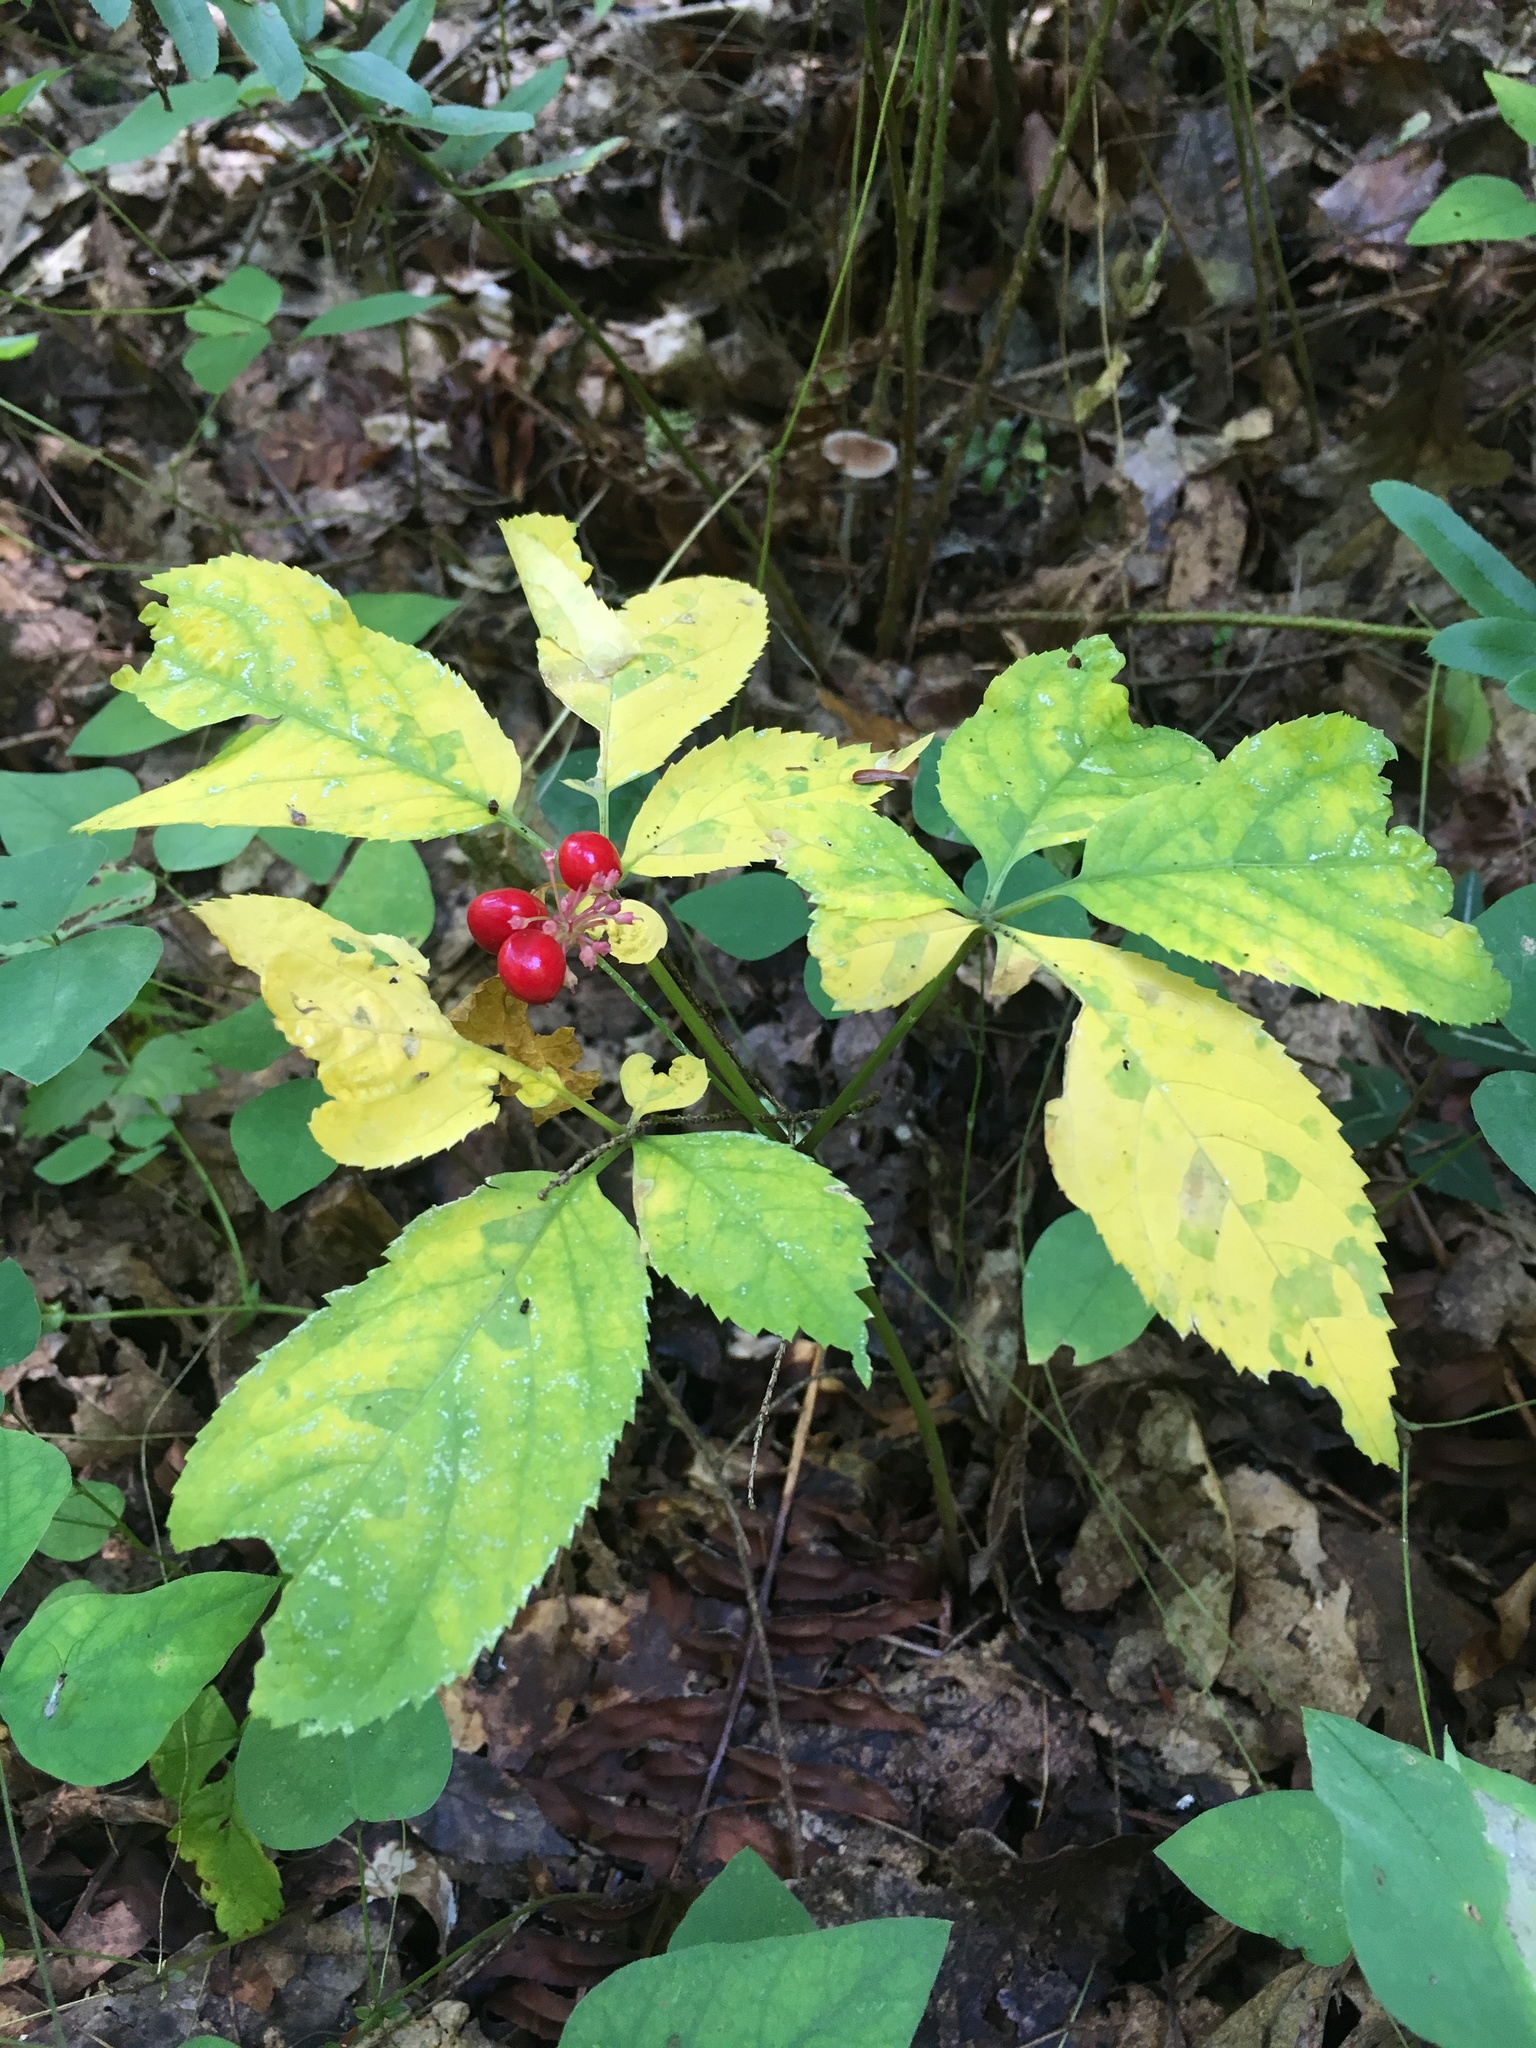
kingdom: Plantae
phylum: Tracheophyta
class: Magnoliopsida
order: Apiales
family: Araliaceae
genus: Panax
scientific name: Panax quinquefolius
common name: American ginseng
